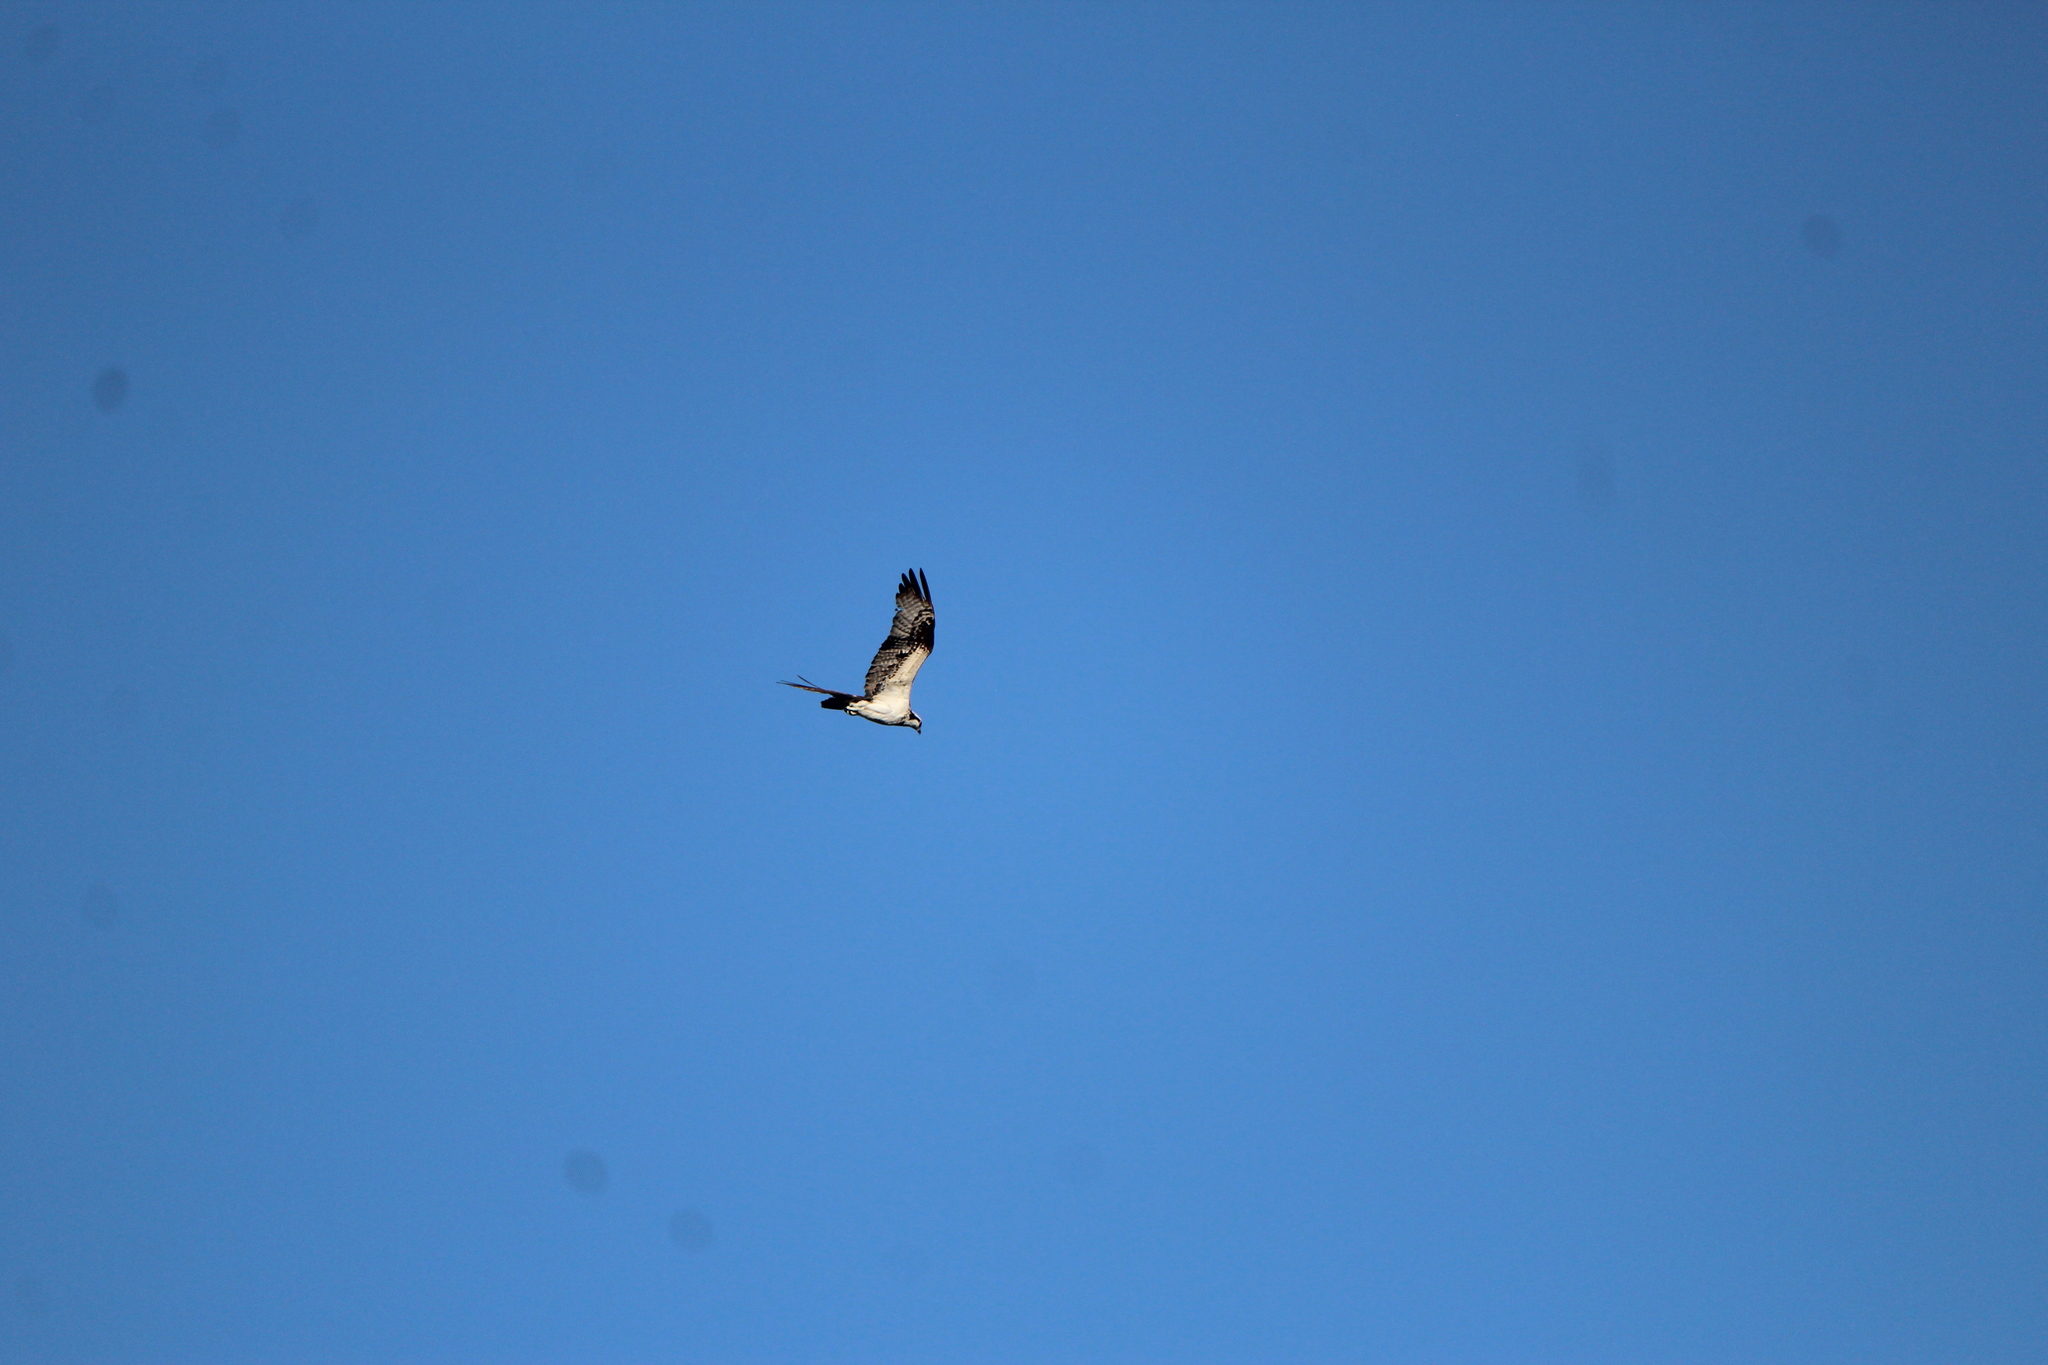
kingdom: Animalia
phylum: Chordata
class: Aves
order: Accipitriformes
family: Pandionidae
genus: Pandion
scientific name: Pandion haliaetus
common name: Osprey
